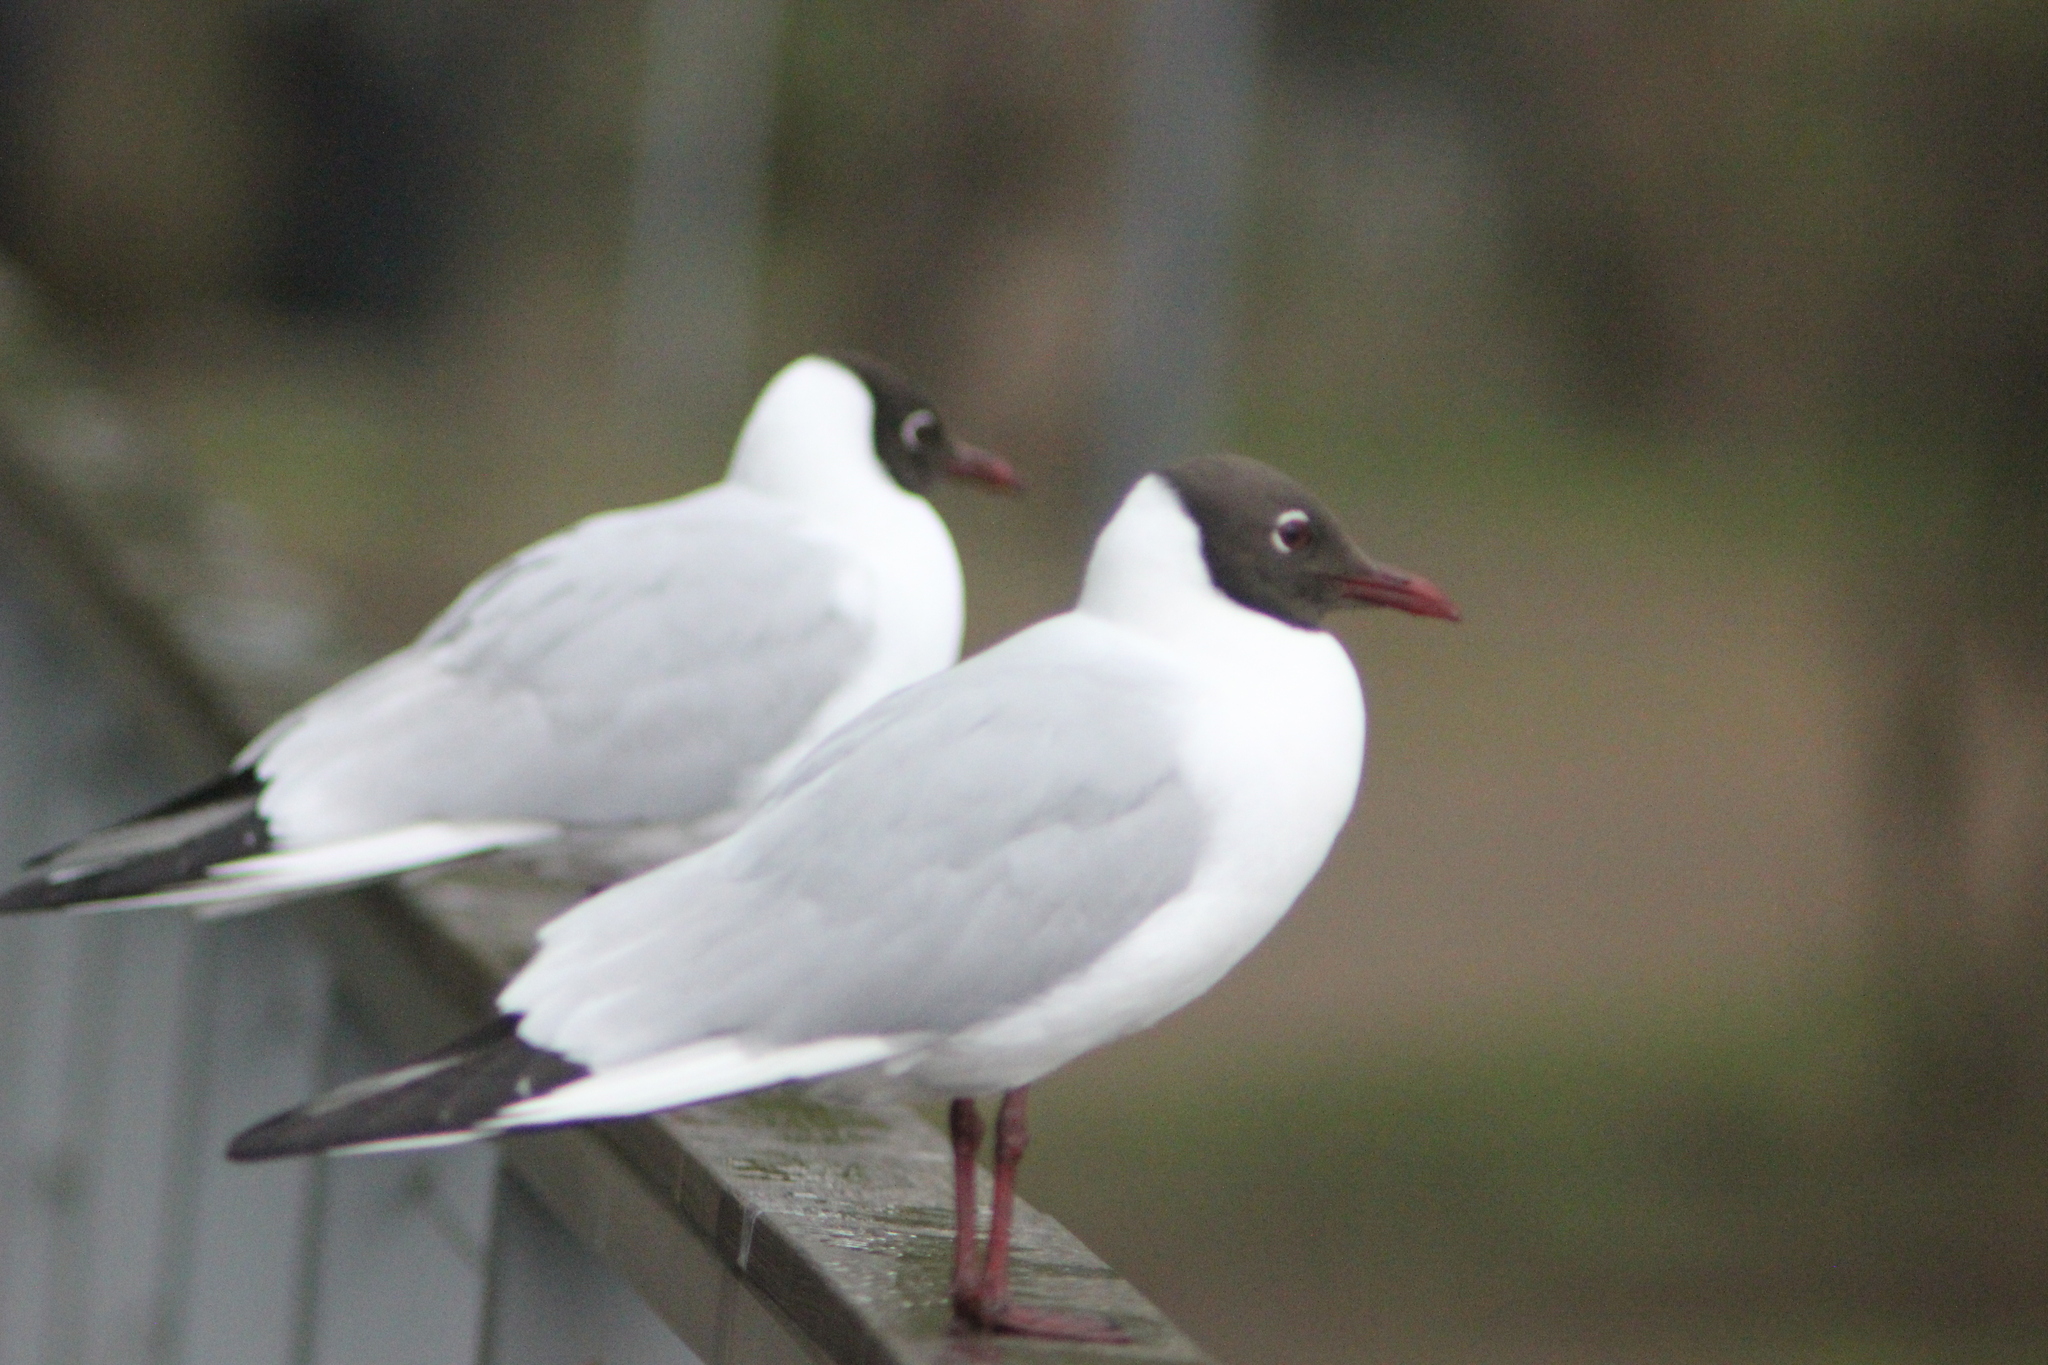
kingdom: Animalia
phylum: Chordata
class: Aves
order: Charadriiformes
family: Laridae
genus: Chroicocephalus
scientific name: Chroicocephalus ridibundus
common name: Black-headed gull
